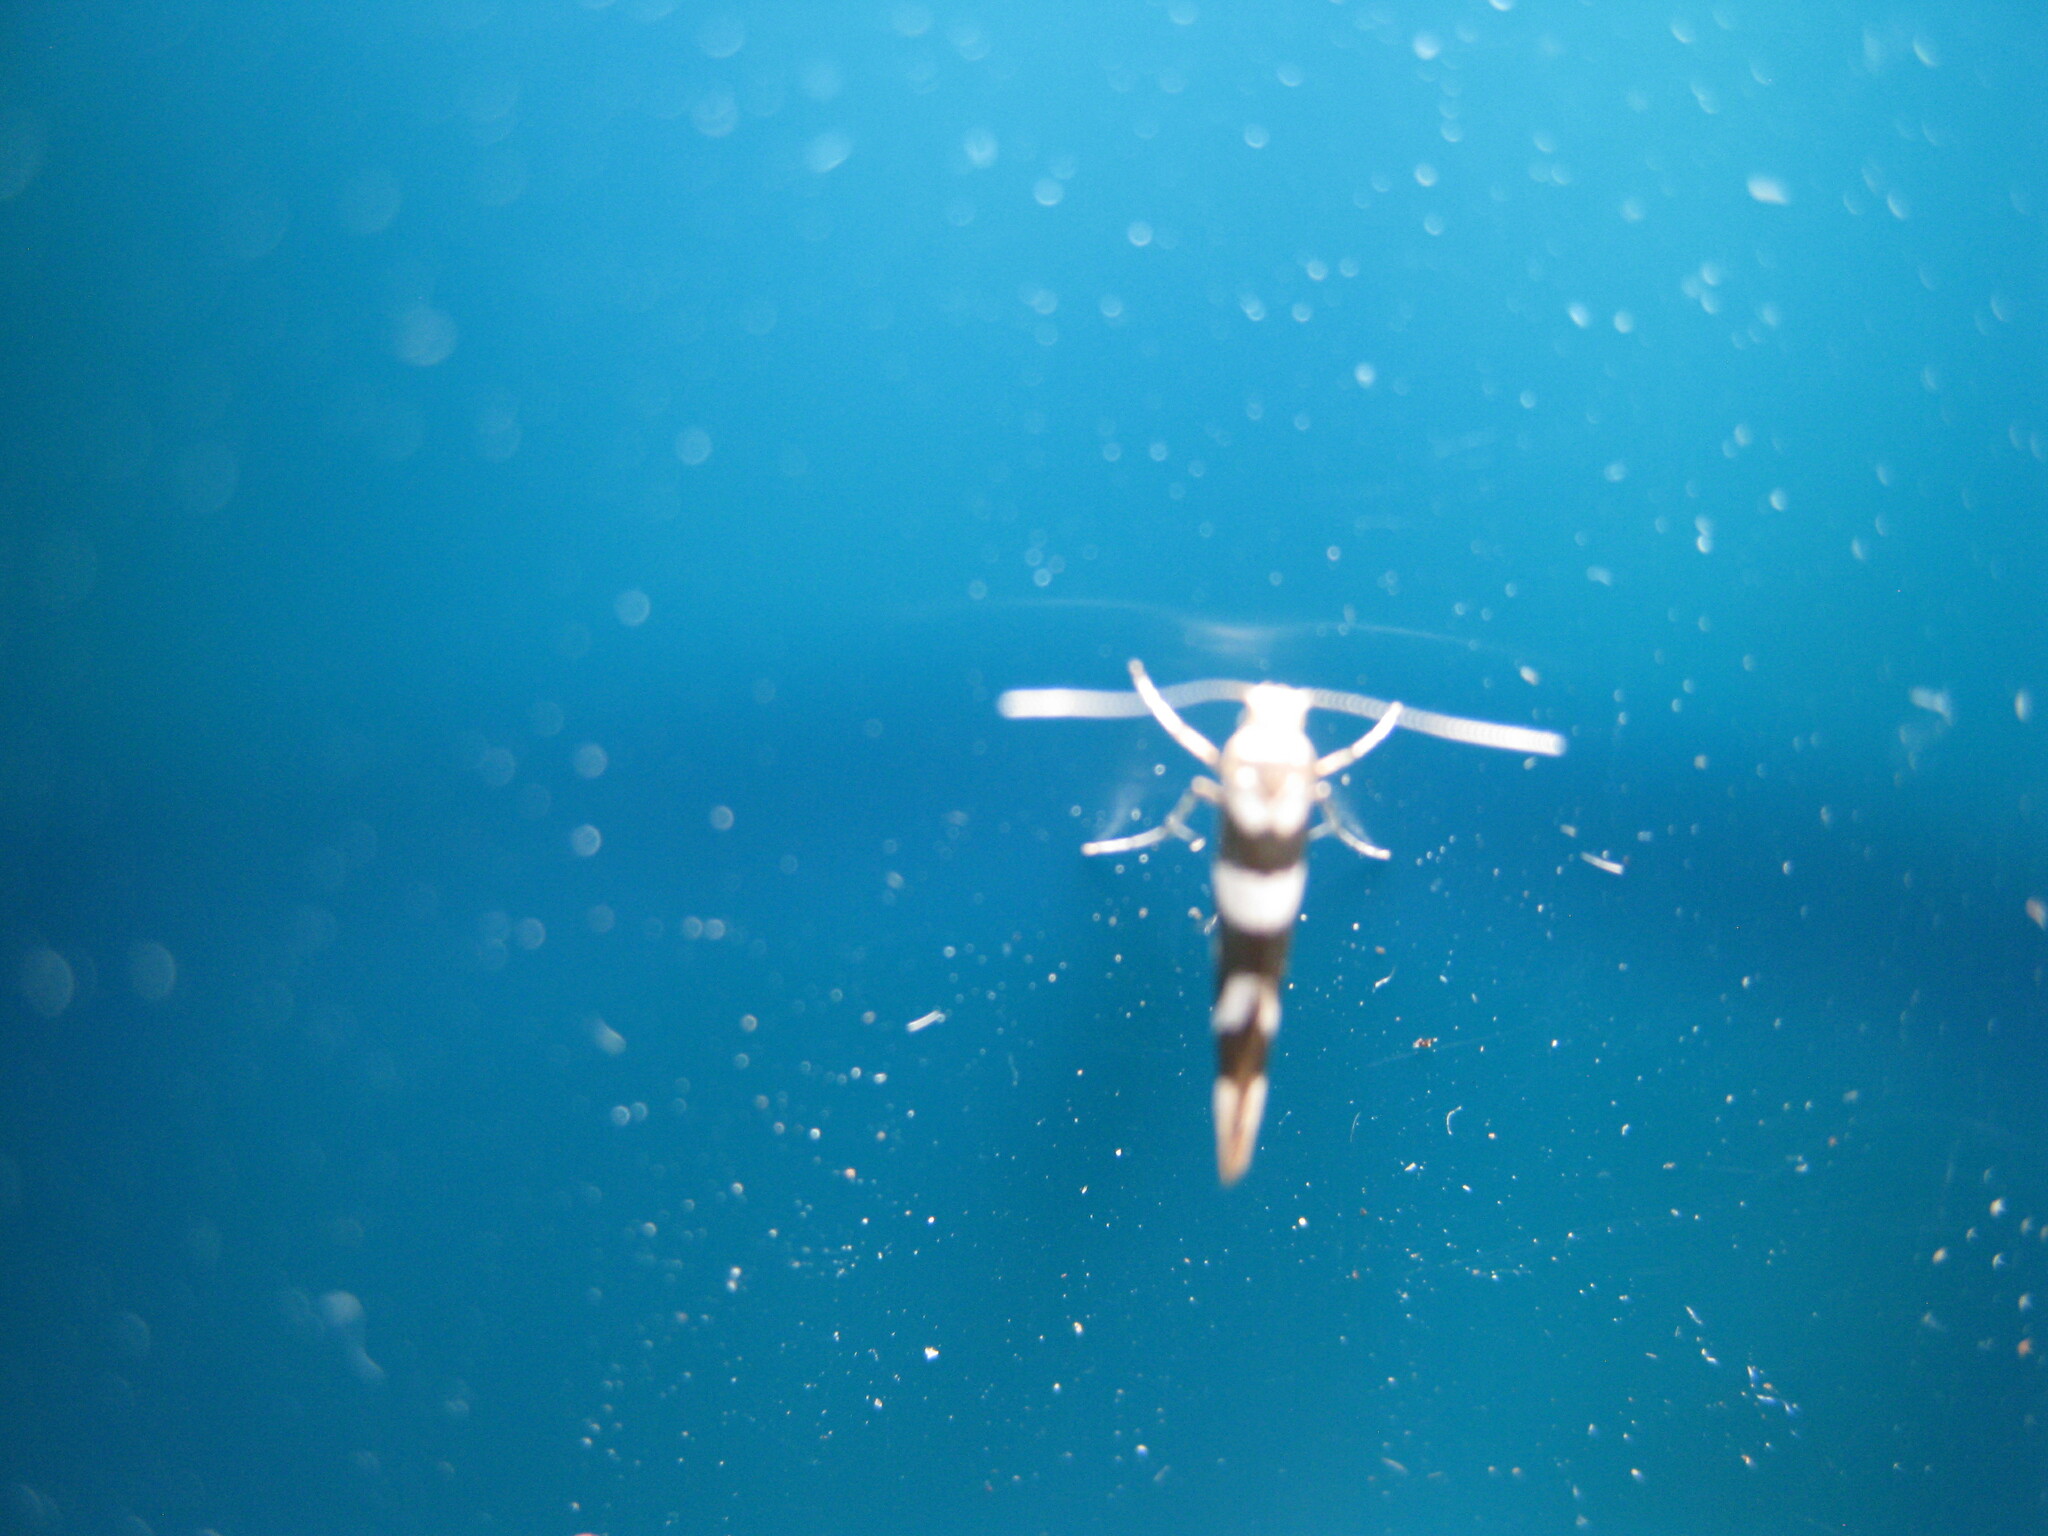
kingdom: Animalia
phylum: Arthropoda
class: Insecta
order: Lepidoptera
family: Argyresthiidae
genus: Argyresthia
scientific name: Argyresthia goedartella
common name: Golden argent
